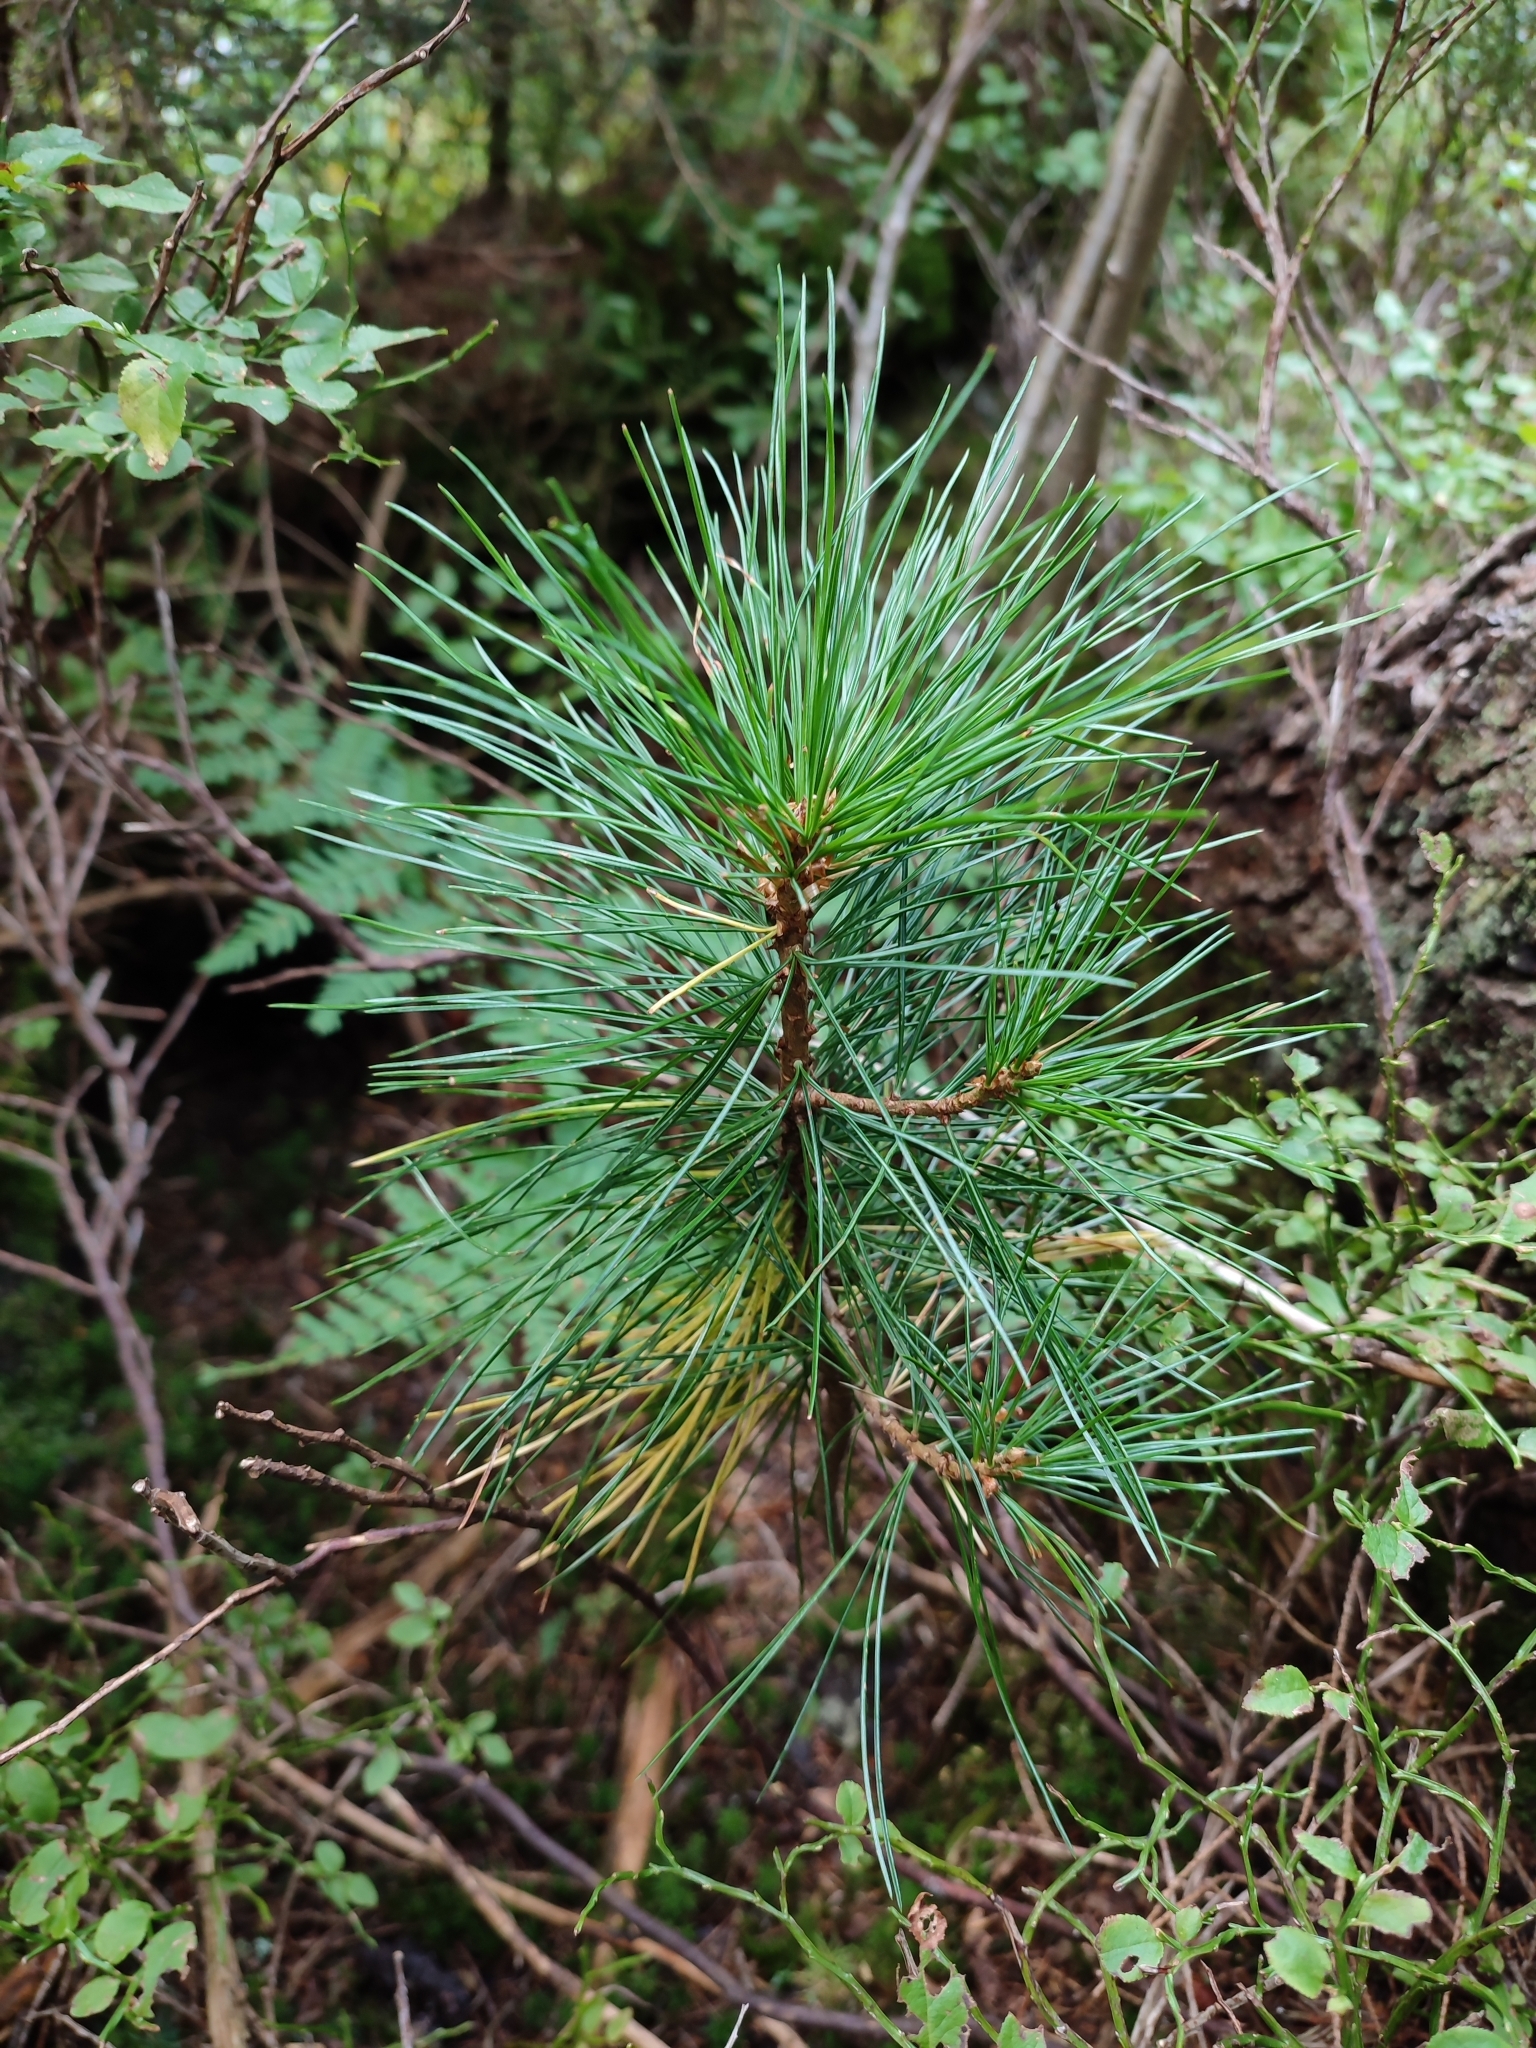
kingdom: Plantae
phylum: Tracheophyta
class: Pinopsida
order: Pinales
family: Pinaceae
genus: Pinus
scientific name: Pinus cembra
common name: Arolla pine
